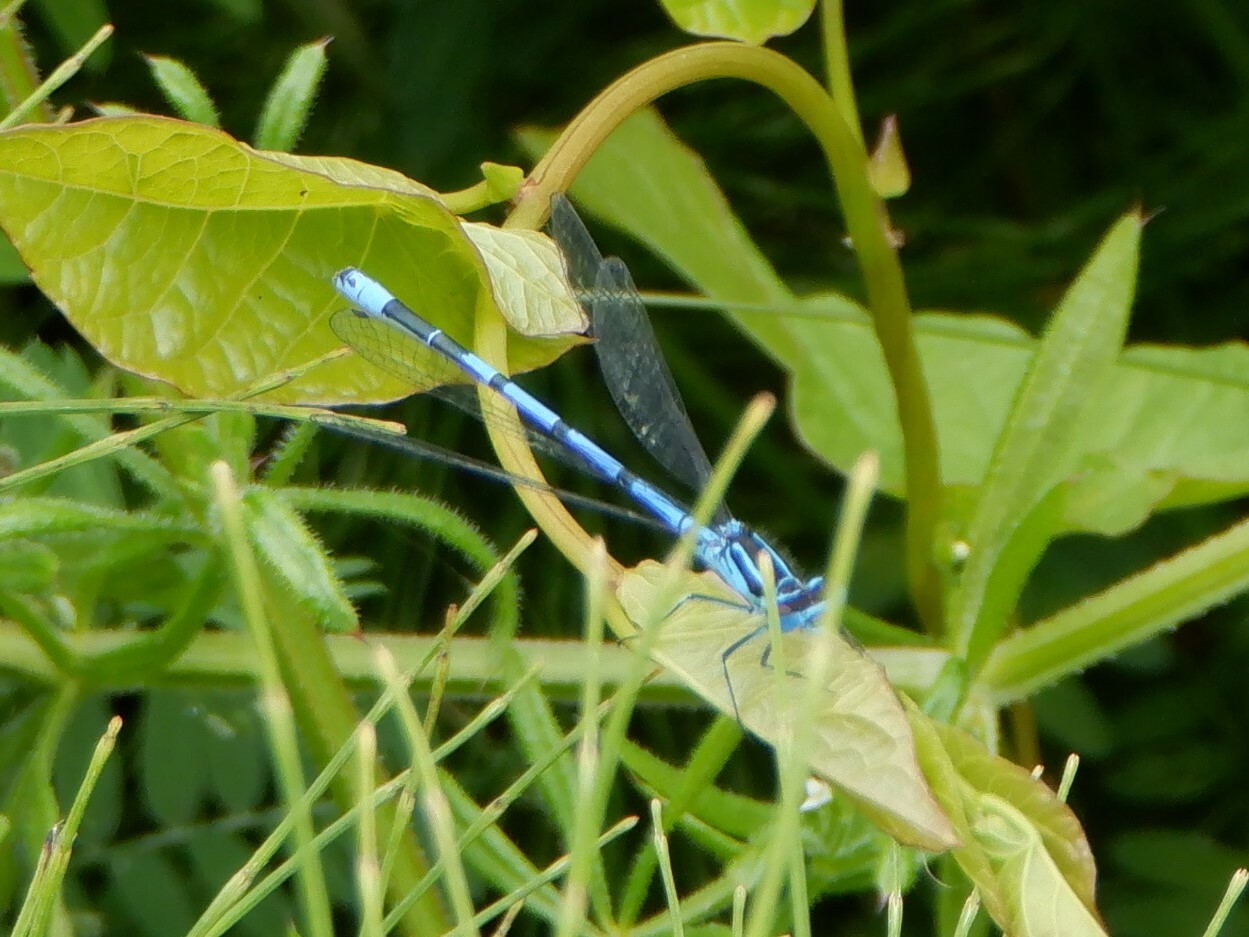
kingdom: Animalia
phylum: Arthropoda
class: Insecta
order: Odonata
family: Coenagrionidae
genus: Coenagrion
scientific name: Coenagrion puella
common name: Azure damselfly
